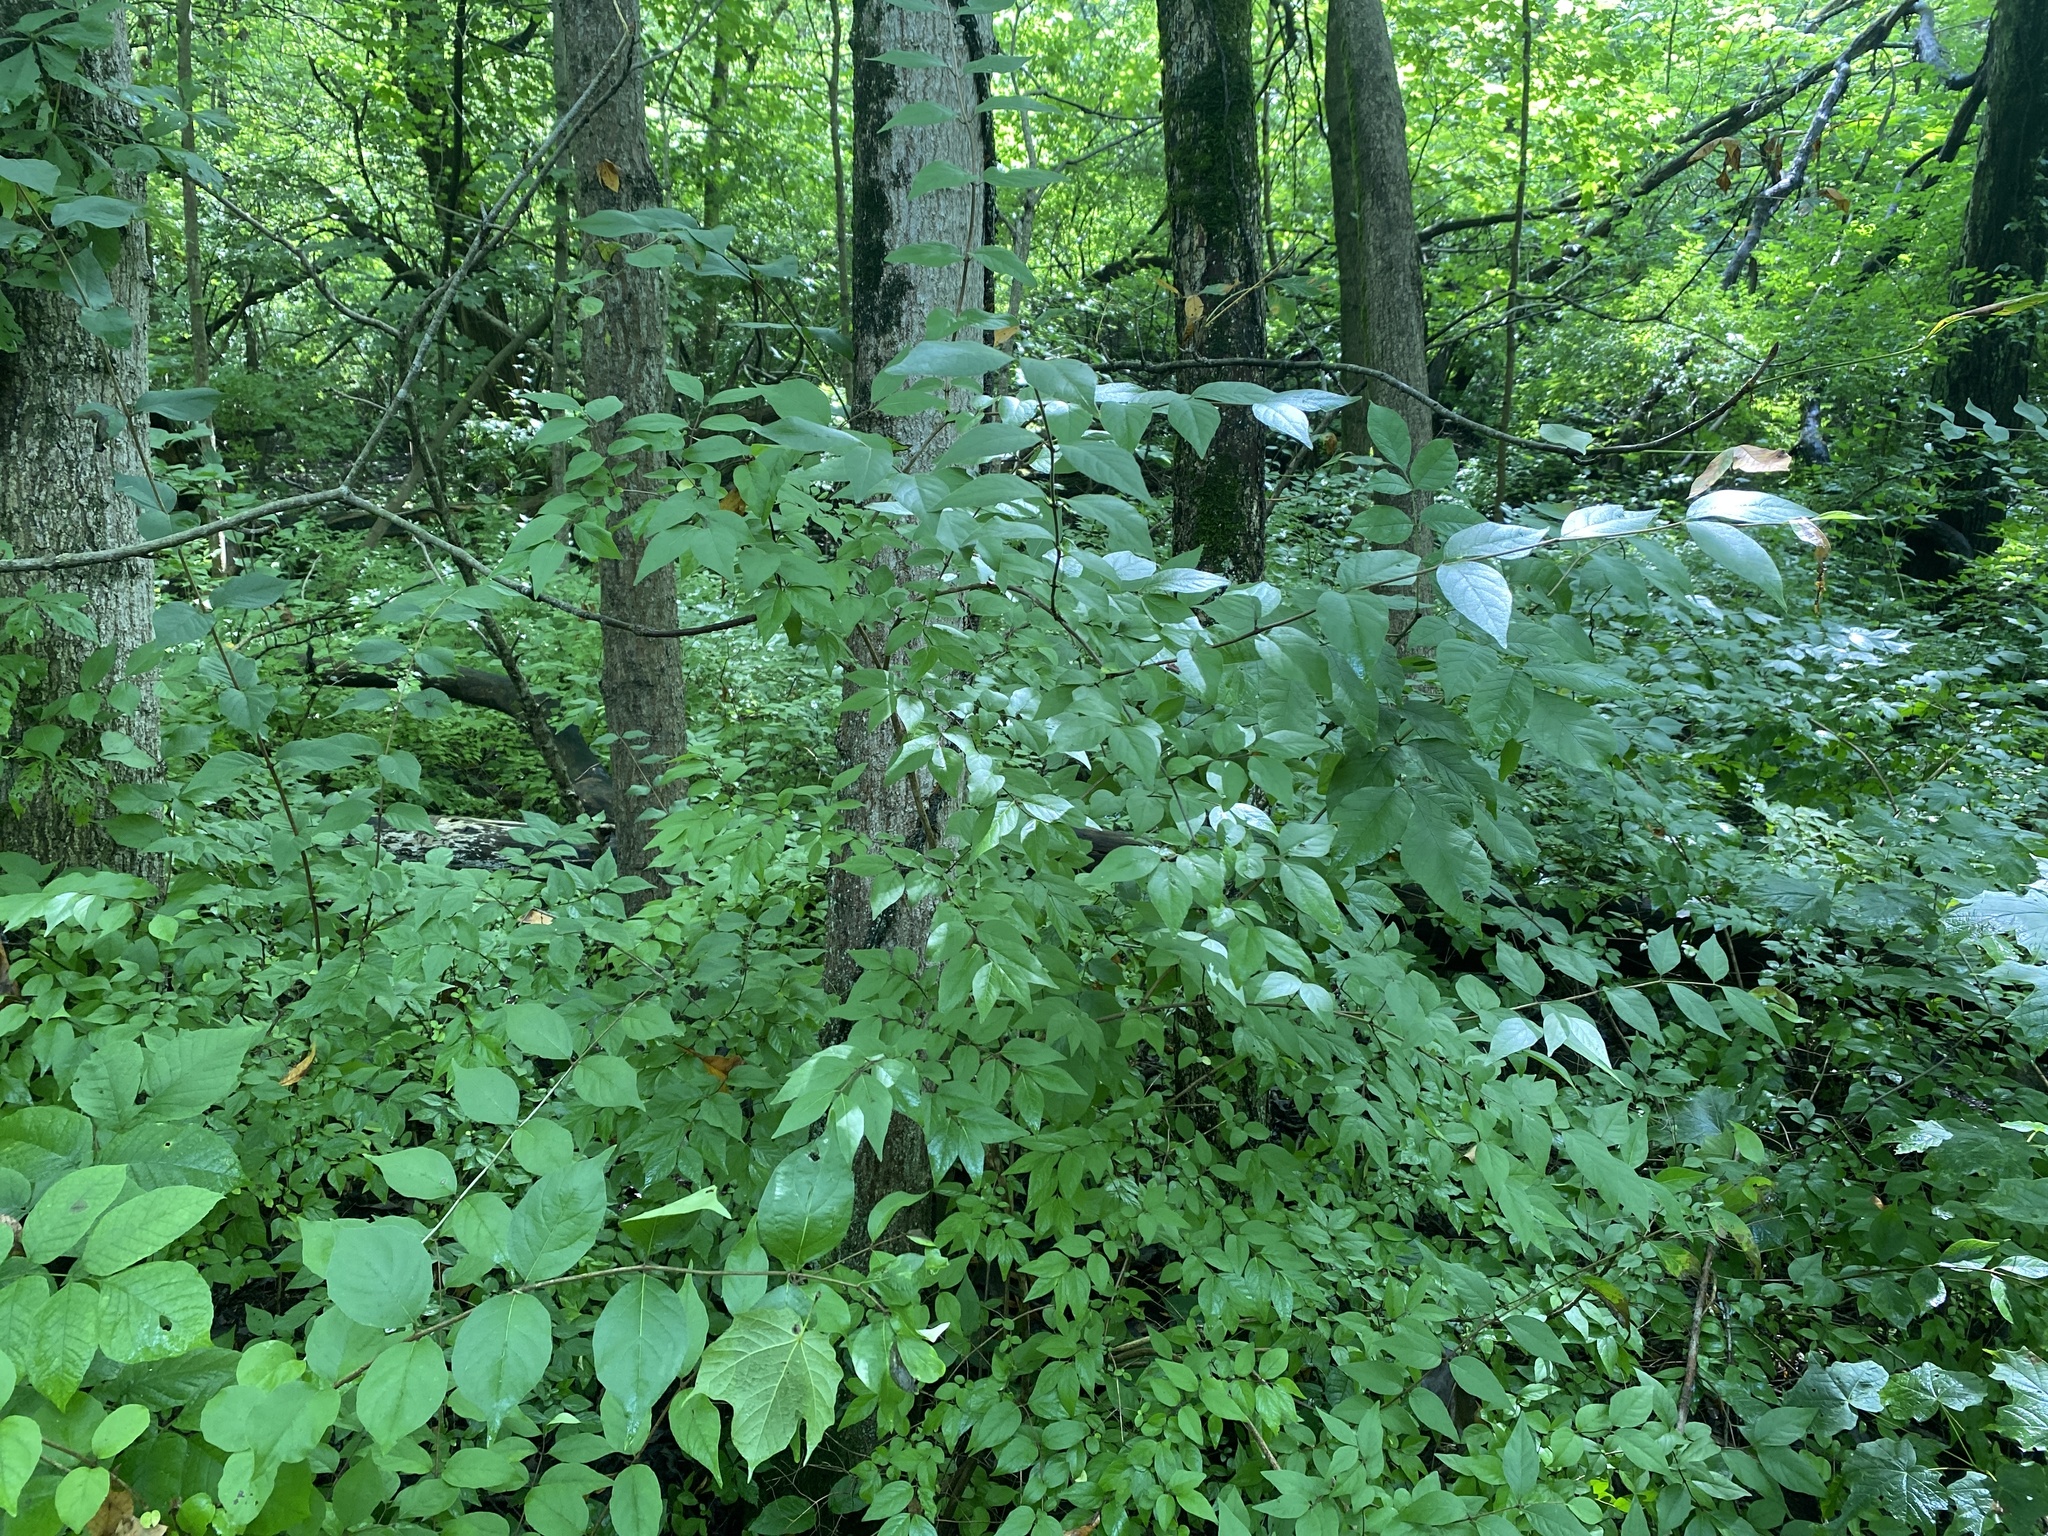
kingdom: Plantae
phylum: Tracheophyta
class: Magnoliopsida
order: Dipsacales
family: Caprifoliaceae
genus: Lonicera
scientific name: Lonicera maackii
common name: Amur honeysuckle
